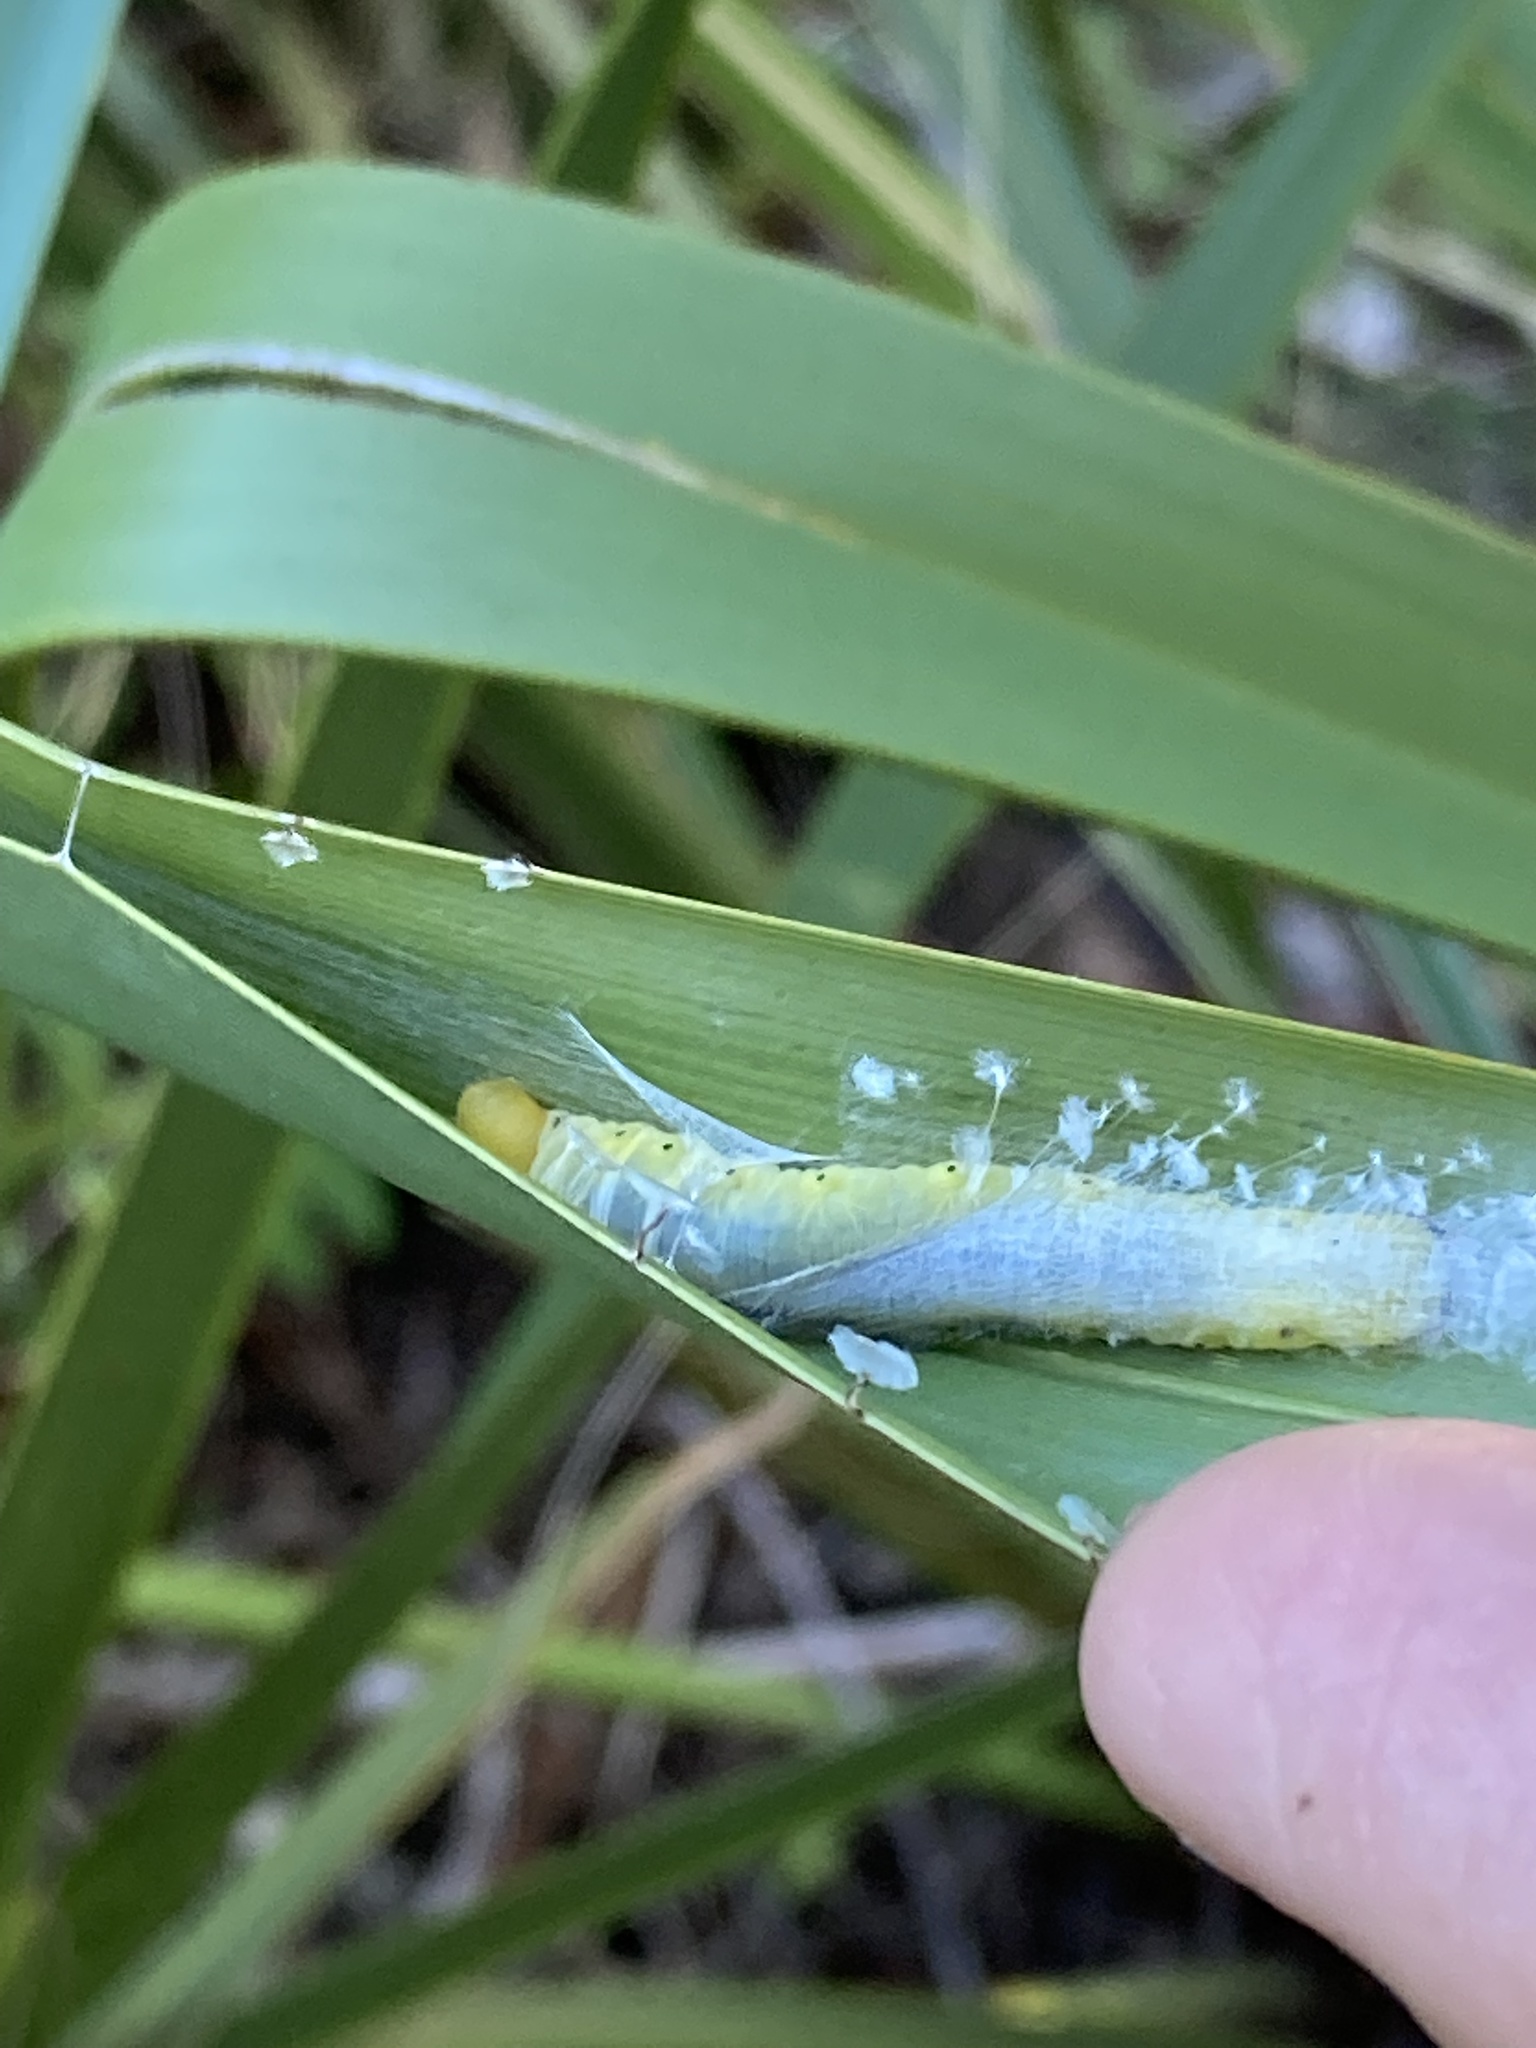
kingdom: Animalia
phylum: Arthropoda
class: Insecta
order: Lepidoptera
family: Hesperiidae
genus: Asbolis
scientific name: Asbolis capucinus
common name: Monk skipper
